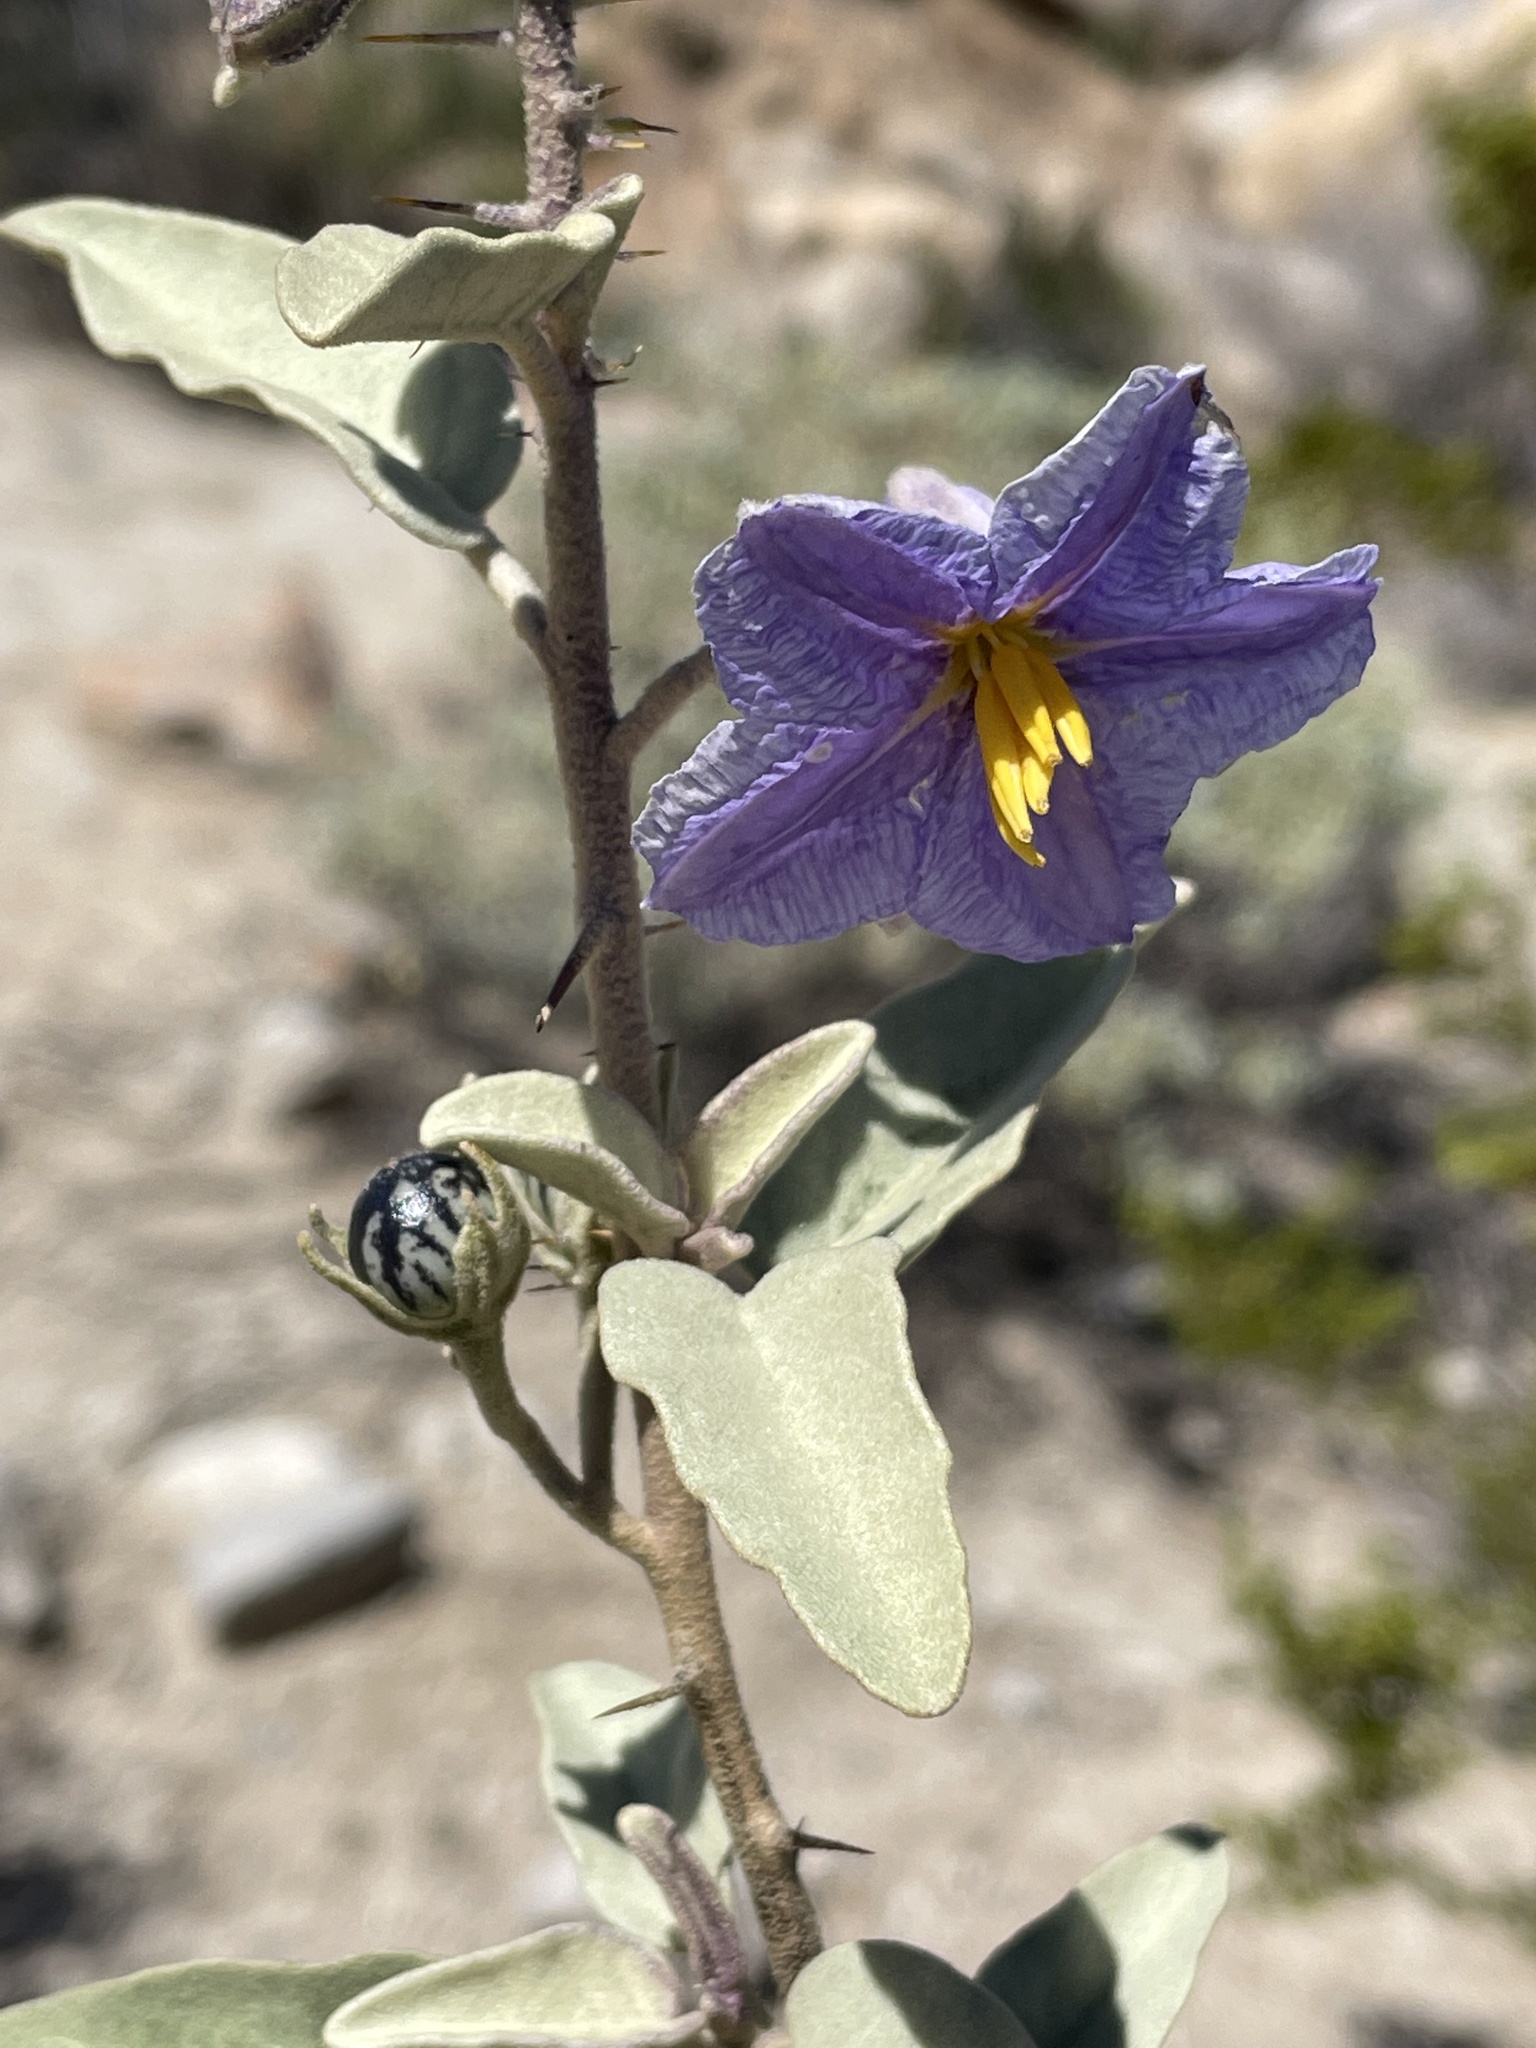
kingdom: Plantae
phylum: Tracheophyta
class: Magnoliopsida
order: Solanales
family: Solanaceae
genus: Solanum
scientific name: Solanum hindsianum
